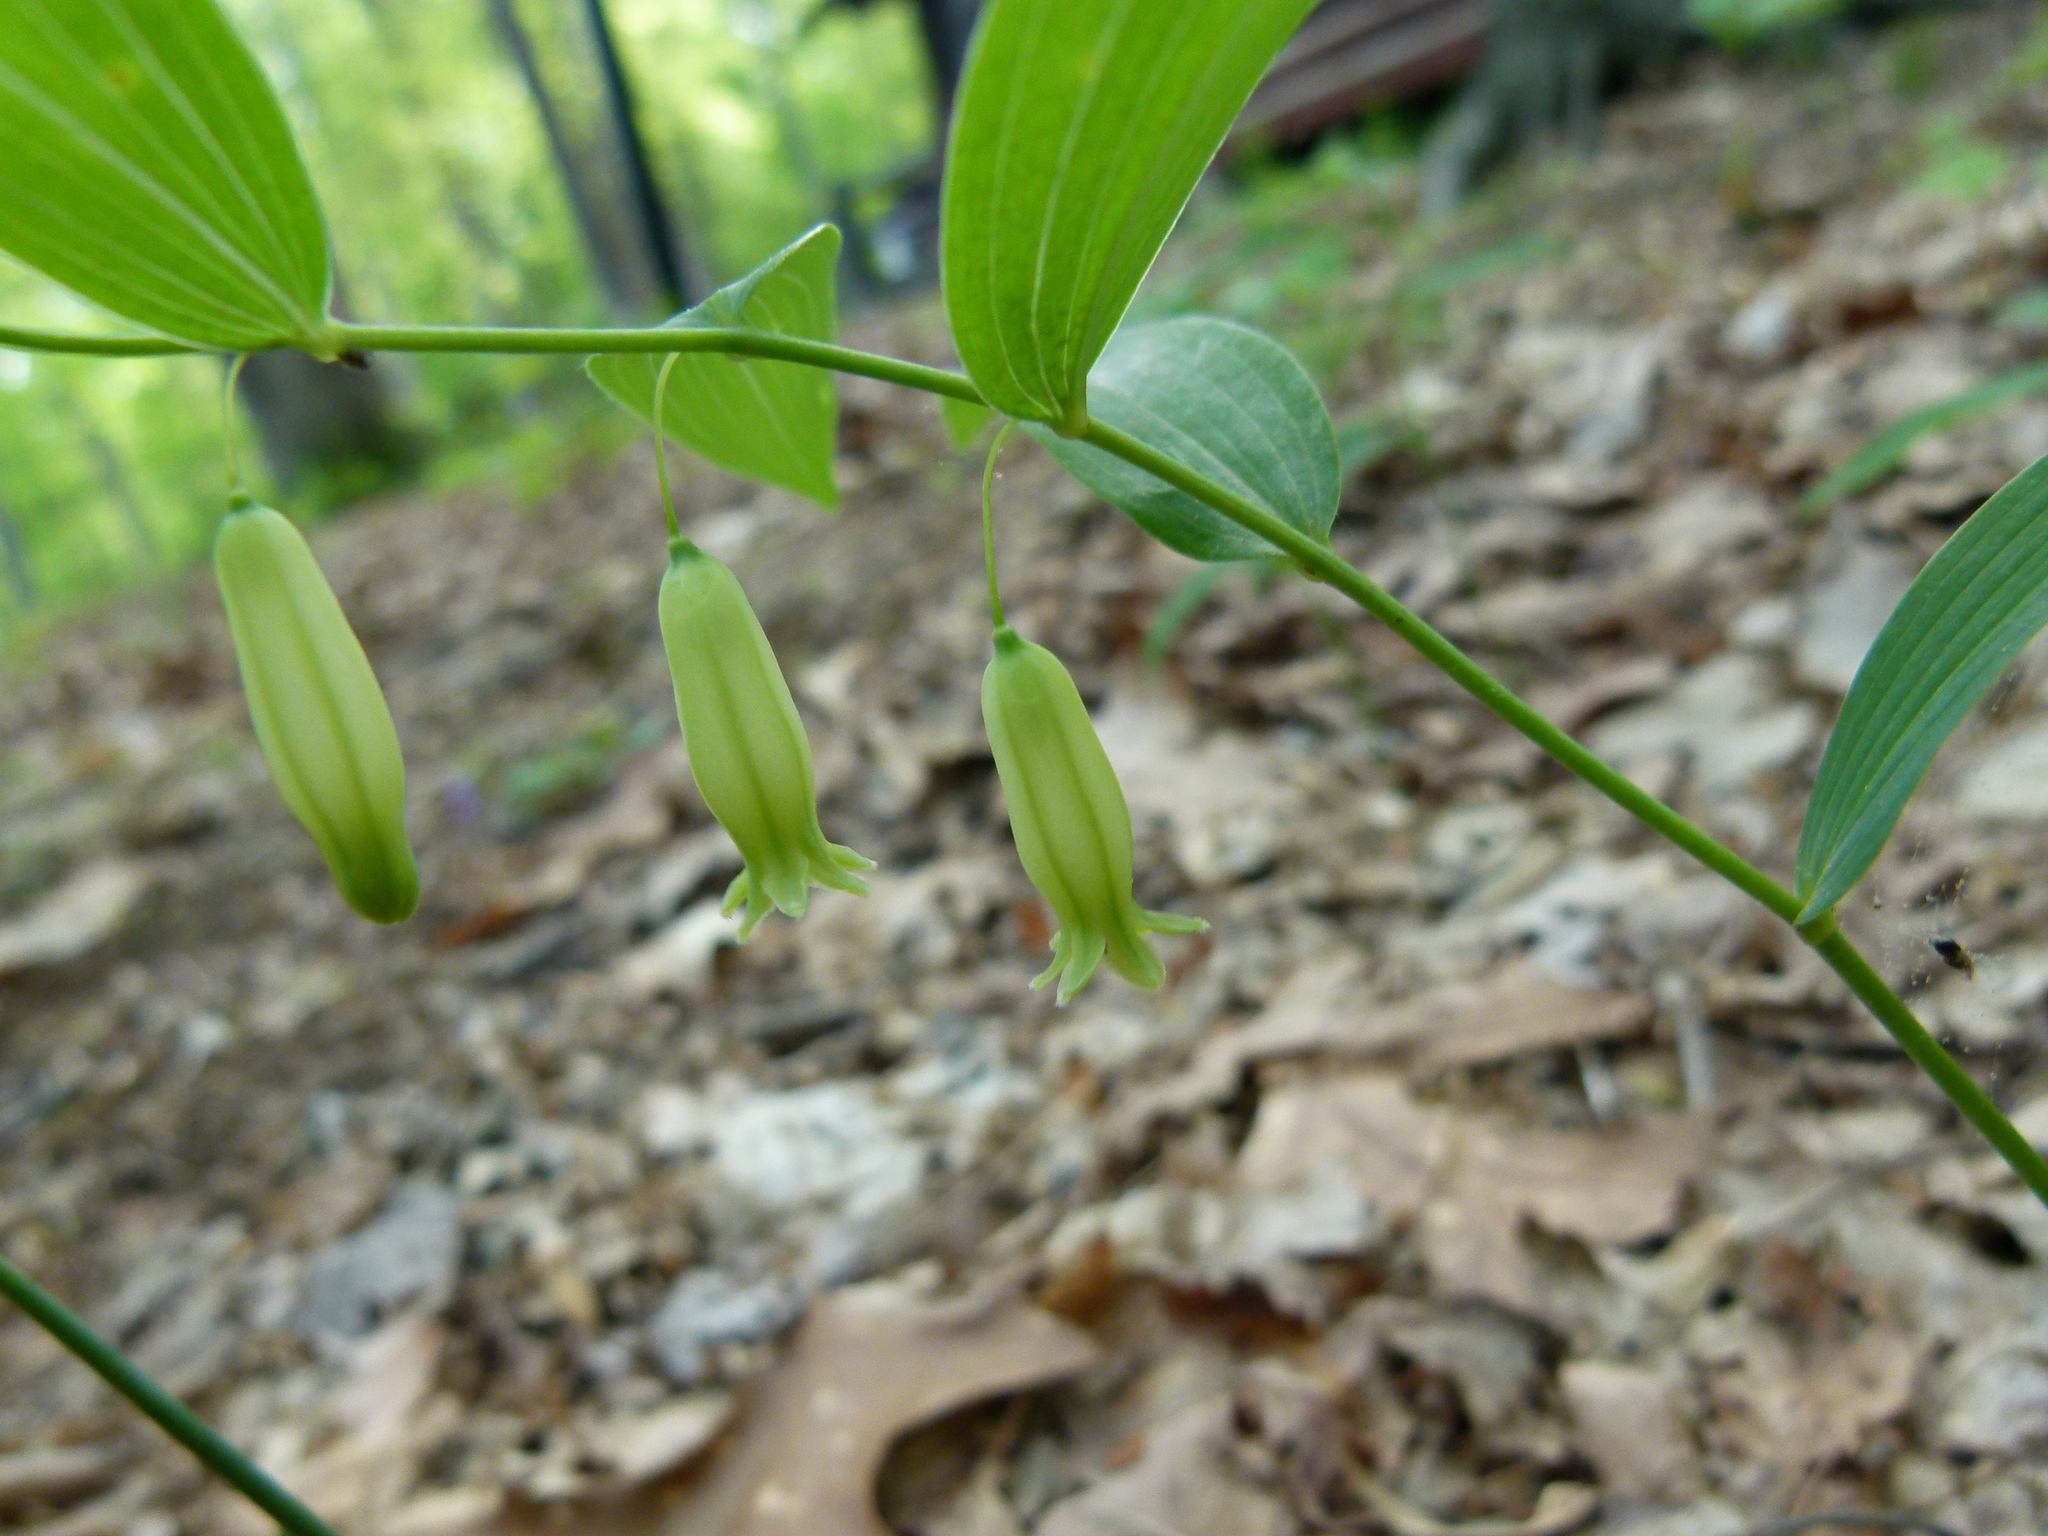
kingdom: Plantae
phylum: Tracheophyta
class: Liliopsida
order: Asparagales
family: Asparagaceae
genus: Polygonatum
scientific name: Polygonatum biflorum
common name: American solomon's-seal
